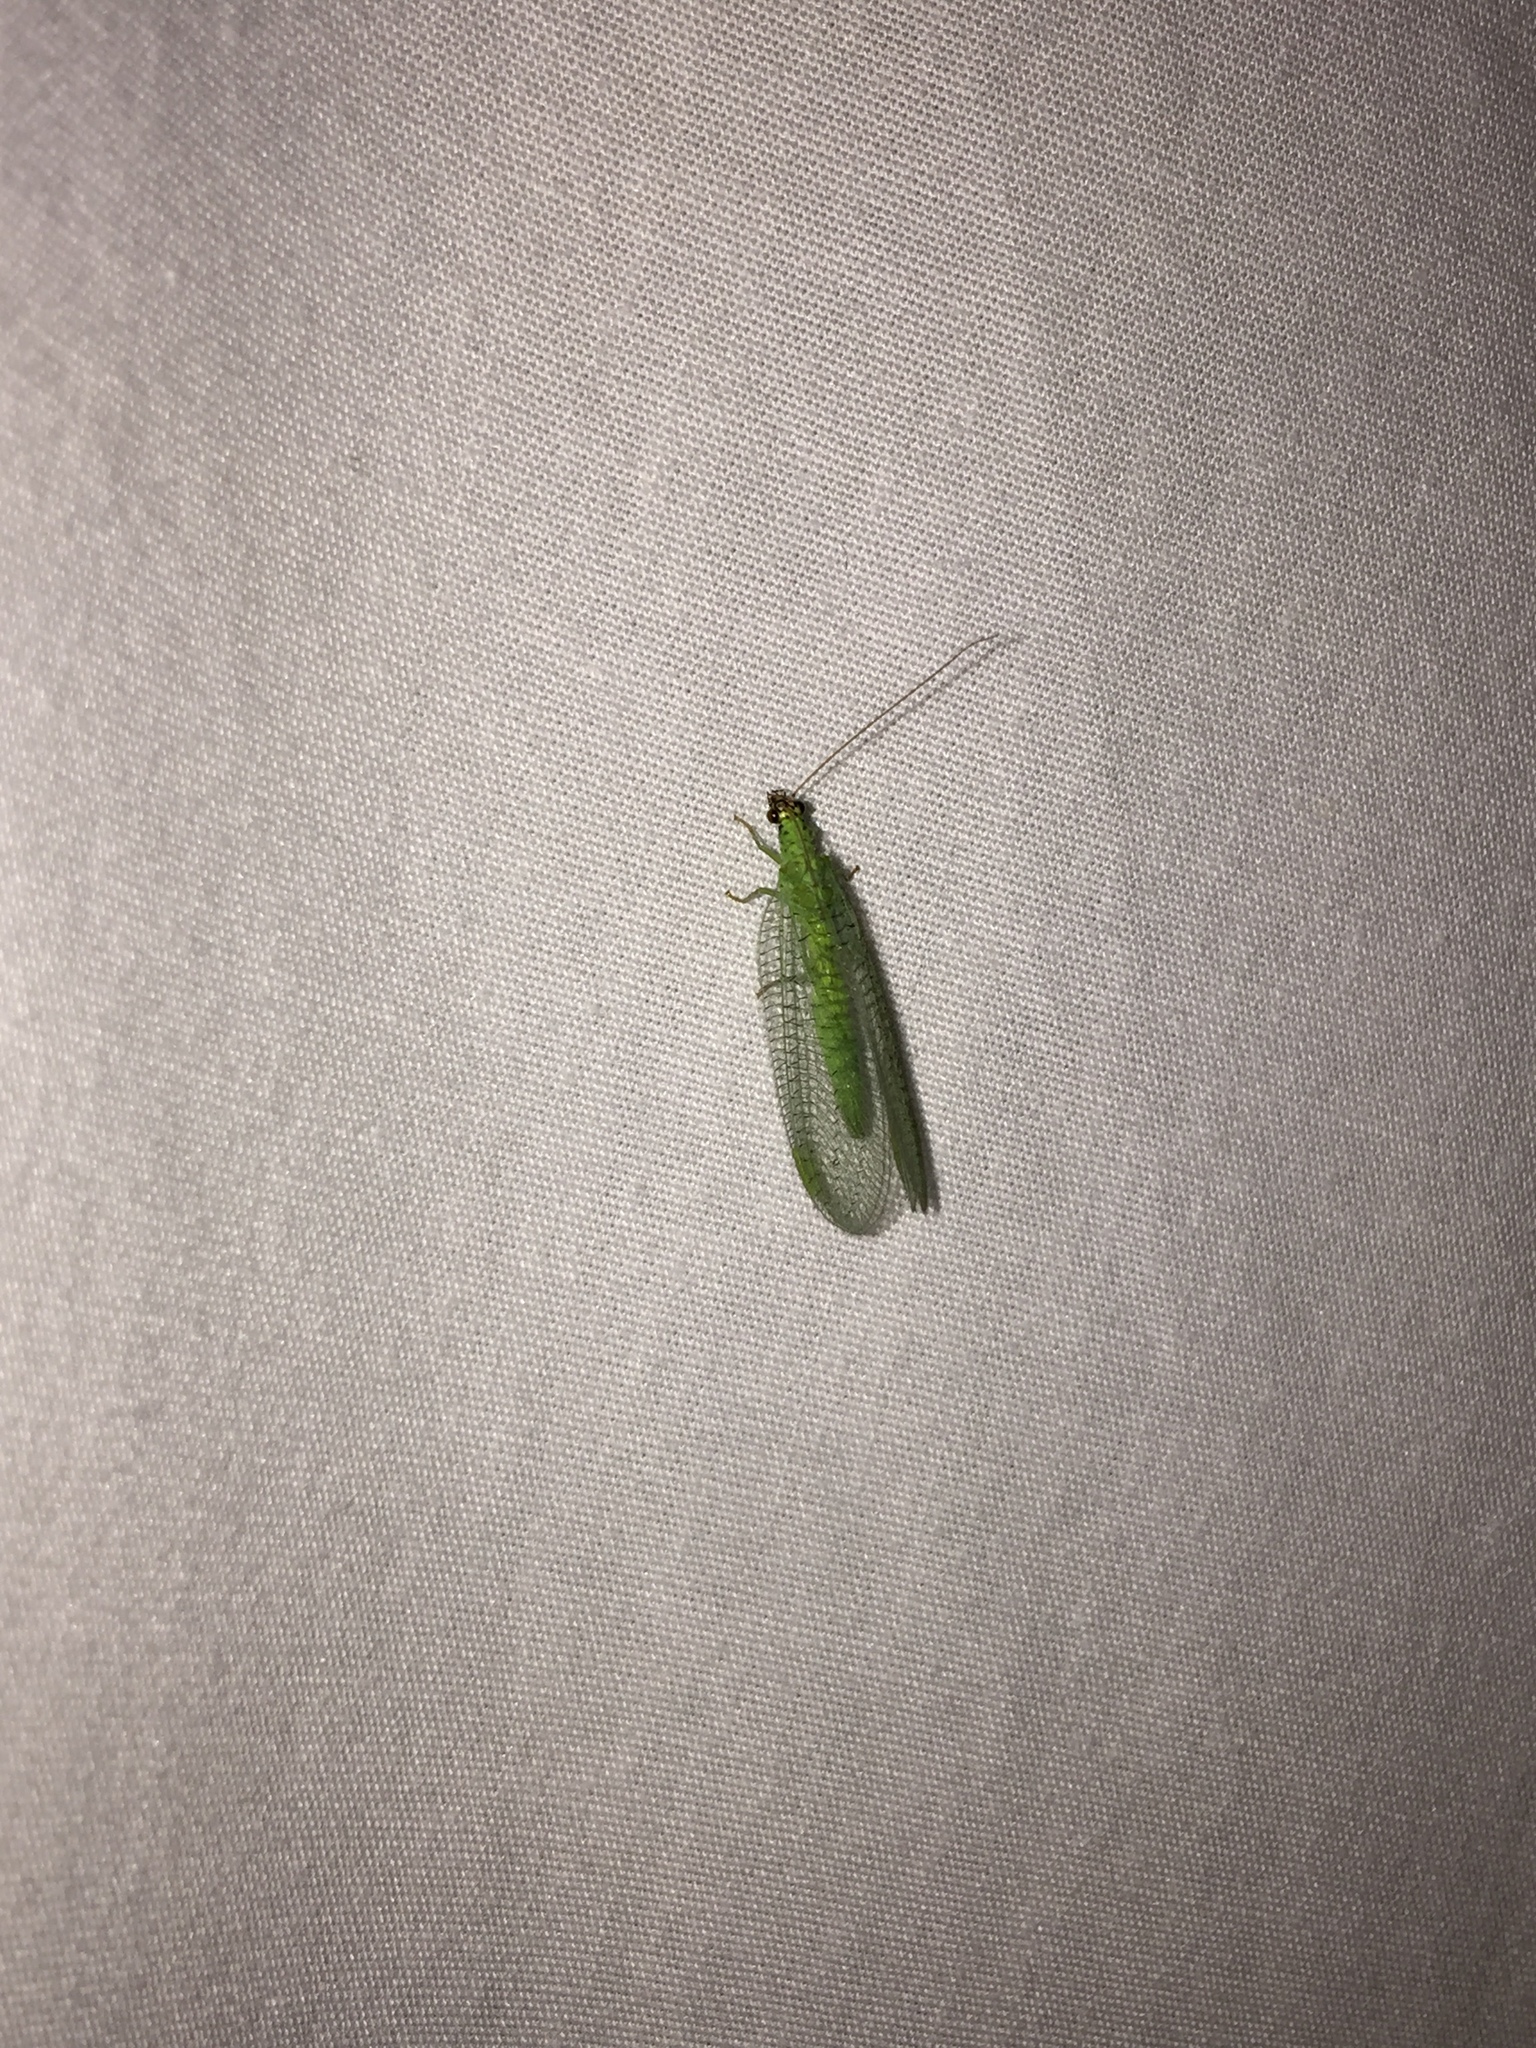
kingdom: Animalia
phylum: Arthropoda
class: Insecta
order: Neuroptera
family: Chrysopidae
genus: Chrysopa
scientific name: Chrysopa oculata
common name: Golden-eyed lacewing
